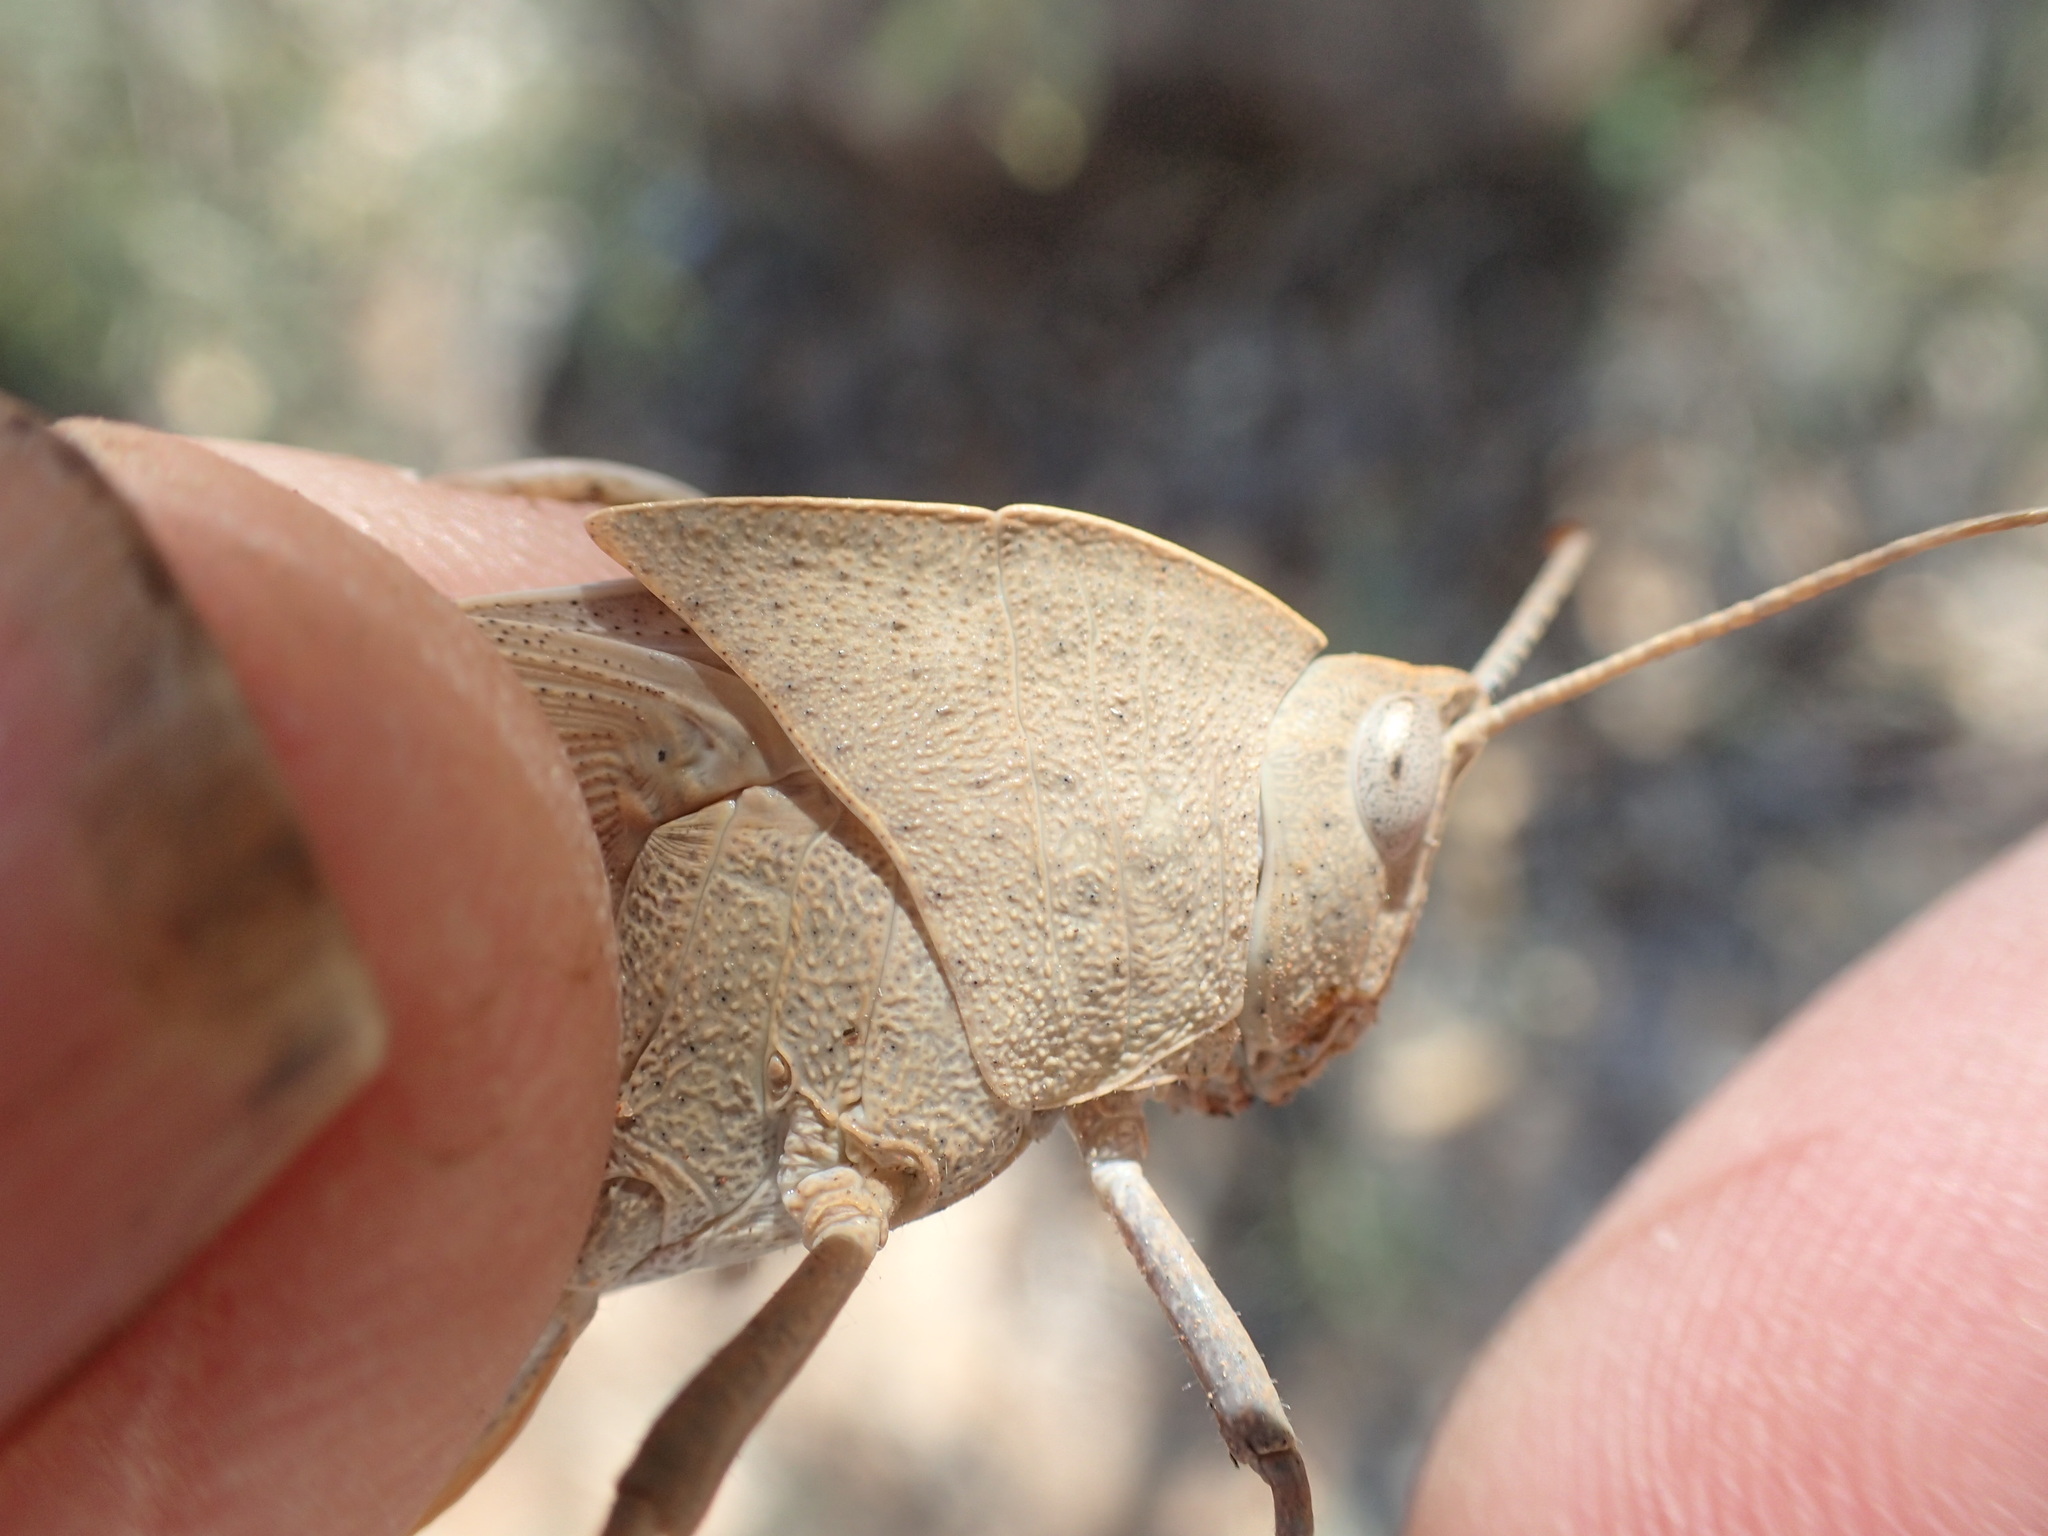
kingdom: Animalia
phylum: Arthropoda
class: Insecta
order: Orthoptera
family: Acrididae
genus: Goniaea
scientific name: Goniaea vocans
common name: Slender gumleaf grasshopper
